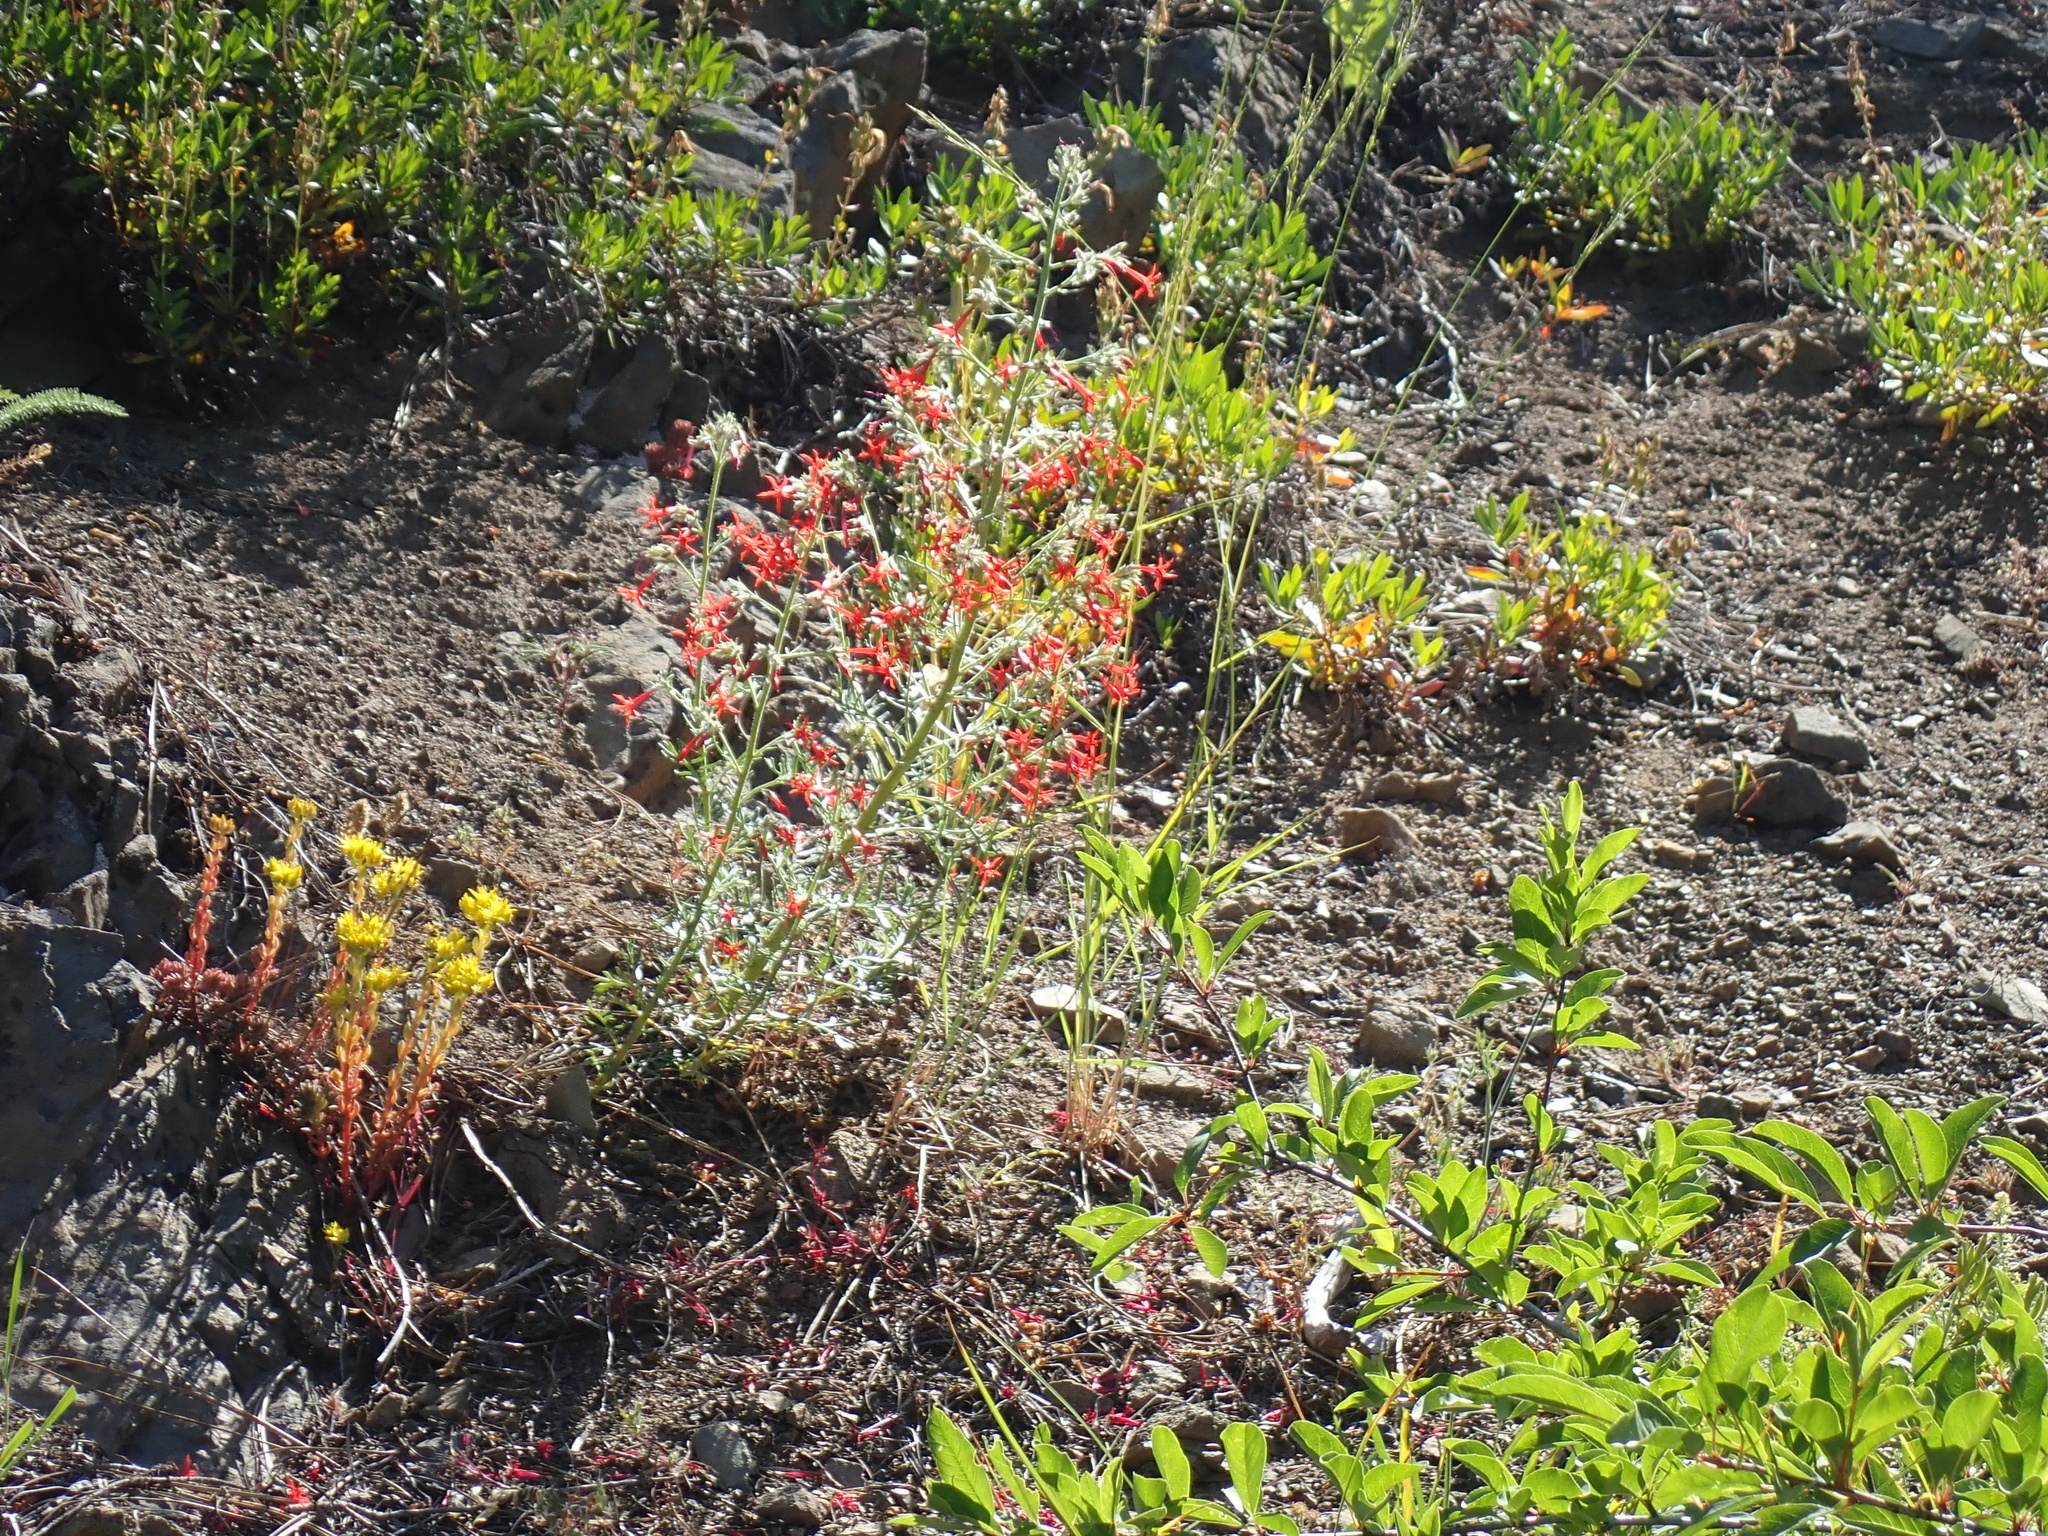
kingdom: Plantae
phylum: Tracheophyta
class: Magnoliopsida
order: Ericales
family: Polemoniaceae
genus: Ipomopsis
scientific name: Ipomopsis aggregata
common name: Scarlet gilia
